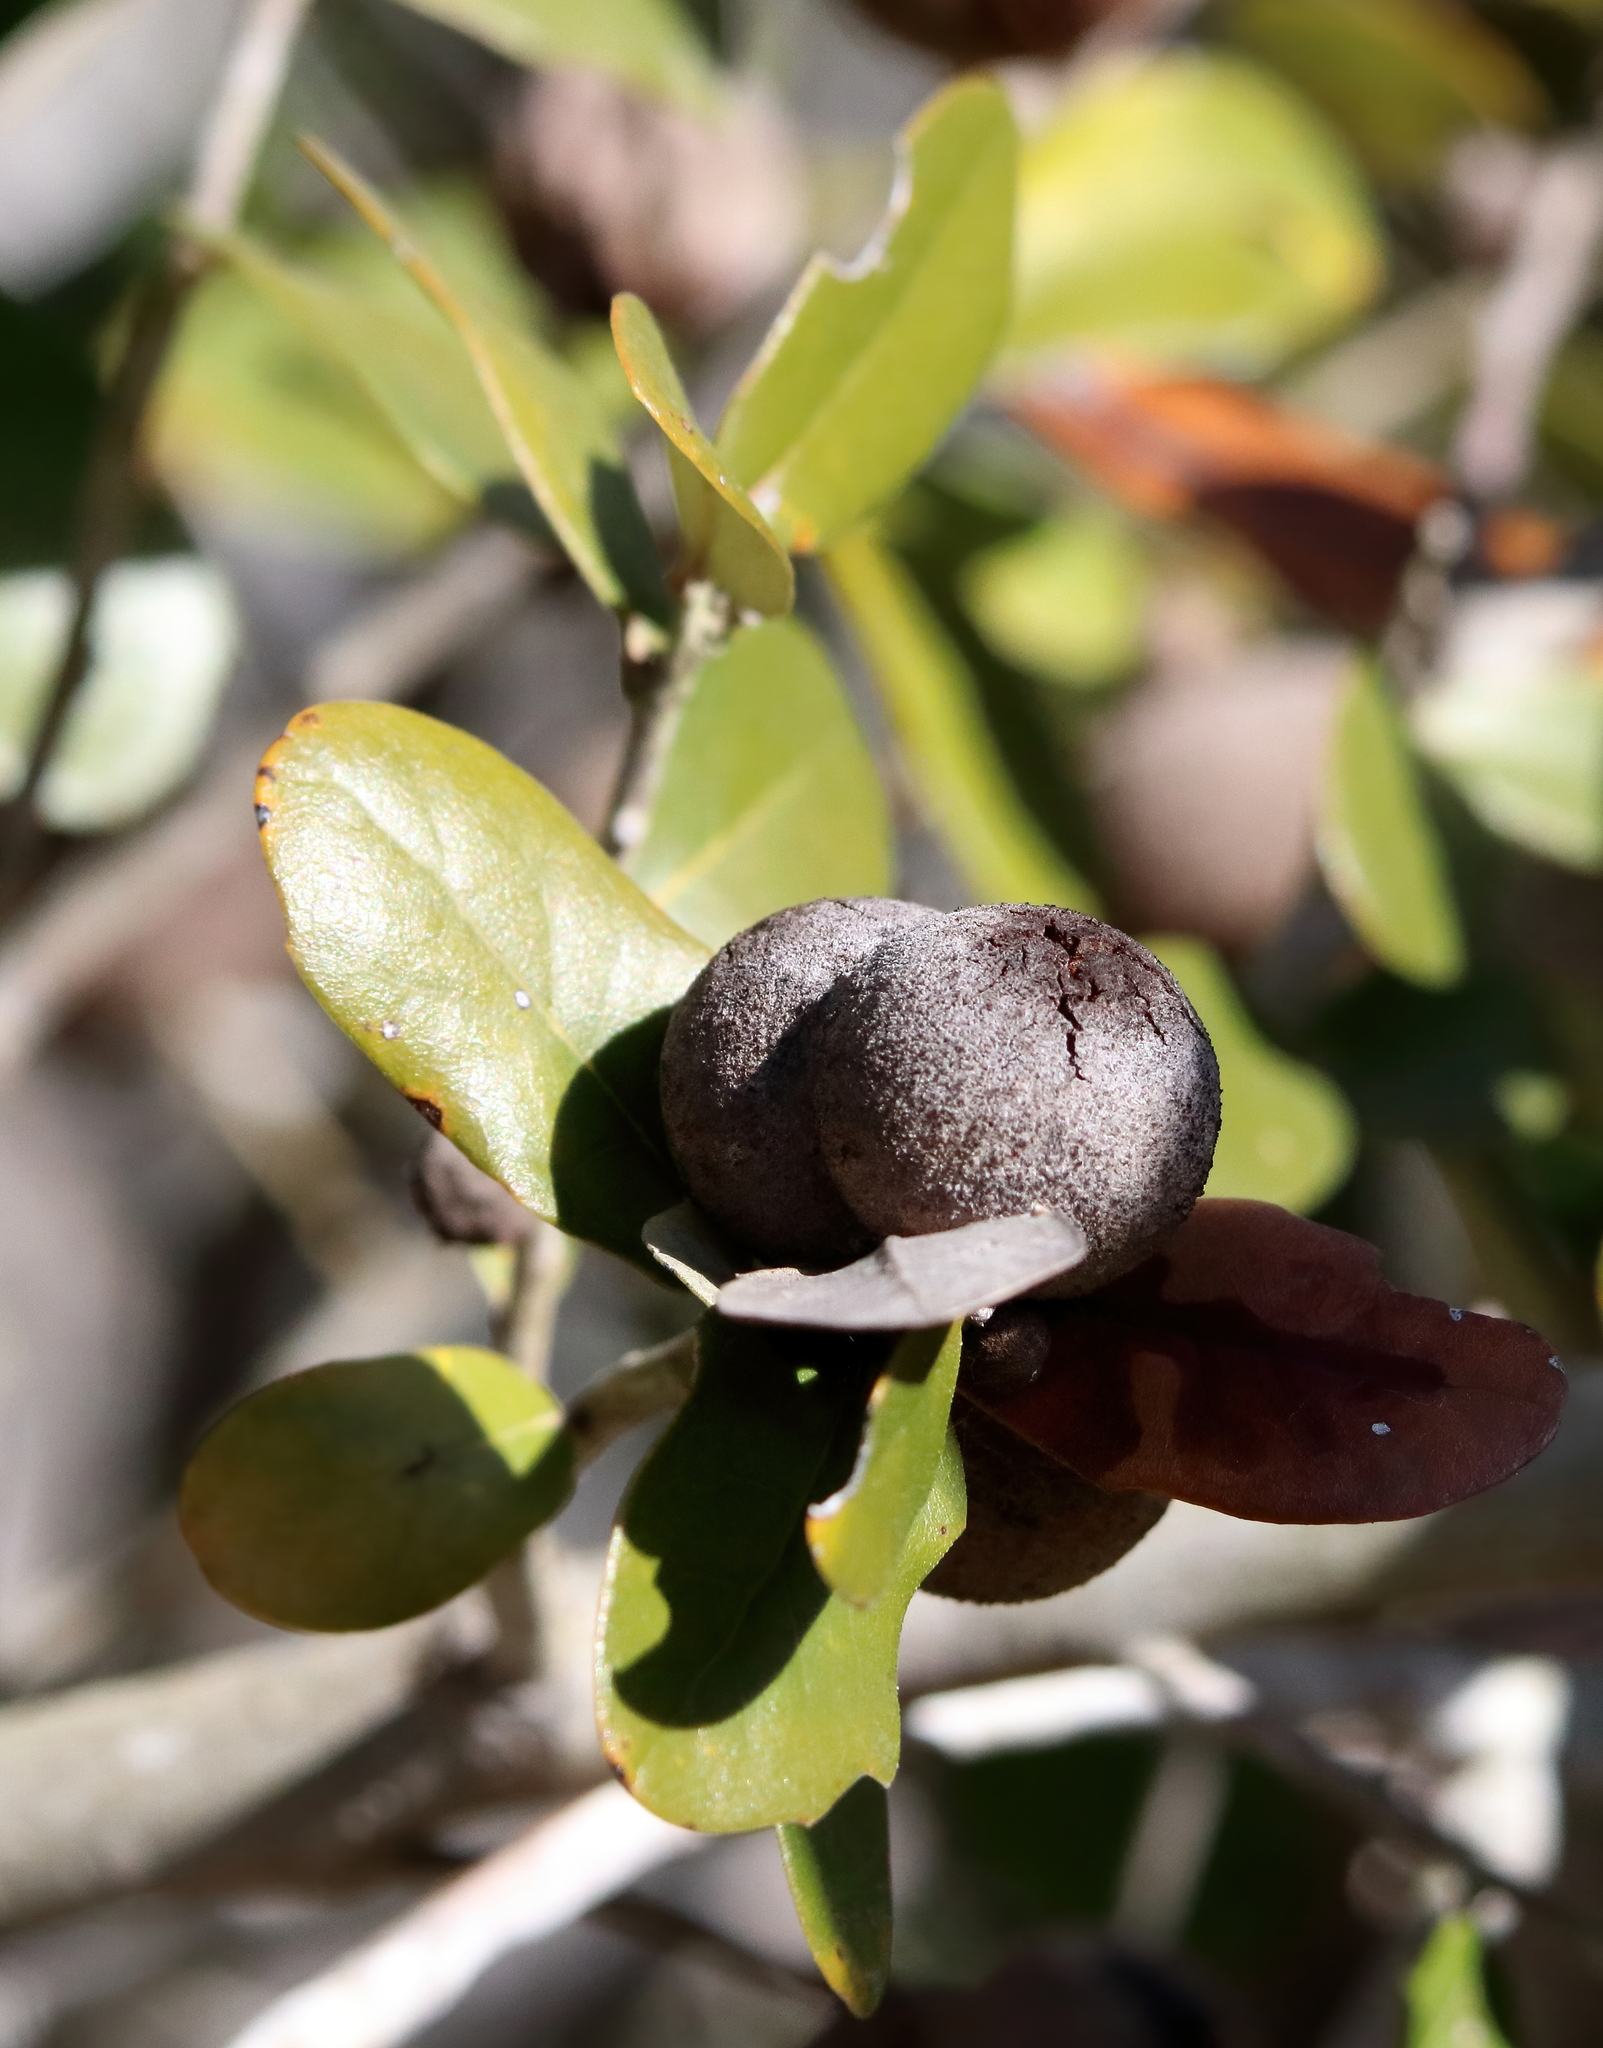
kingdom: Animalia
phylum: Arthropoda
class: Insecta
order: Hymenoptera
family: Cynipidae
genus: Disholcaspis
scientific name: Disholcaspis
